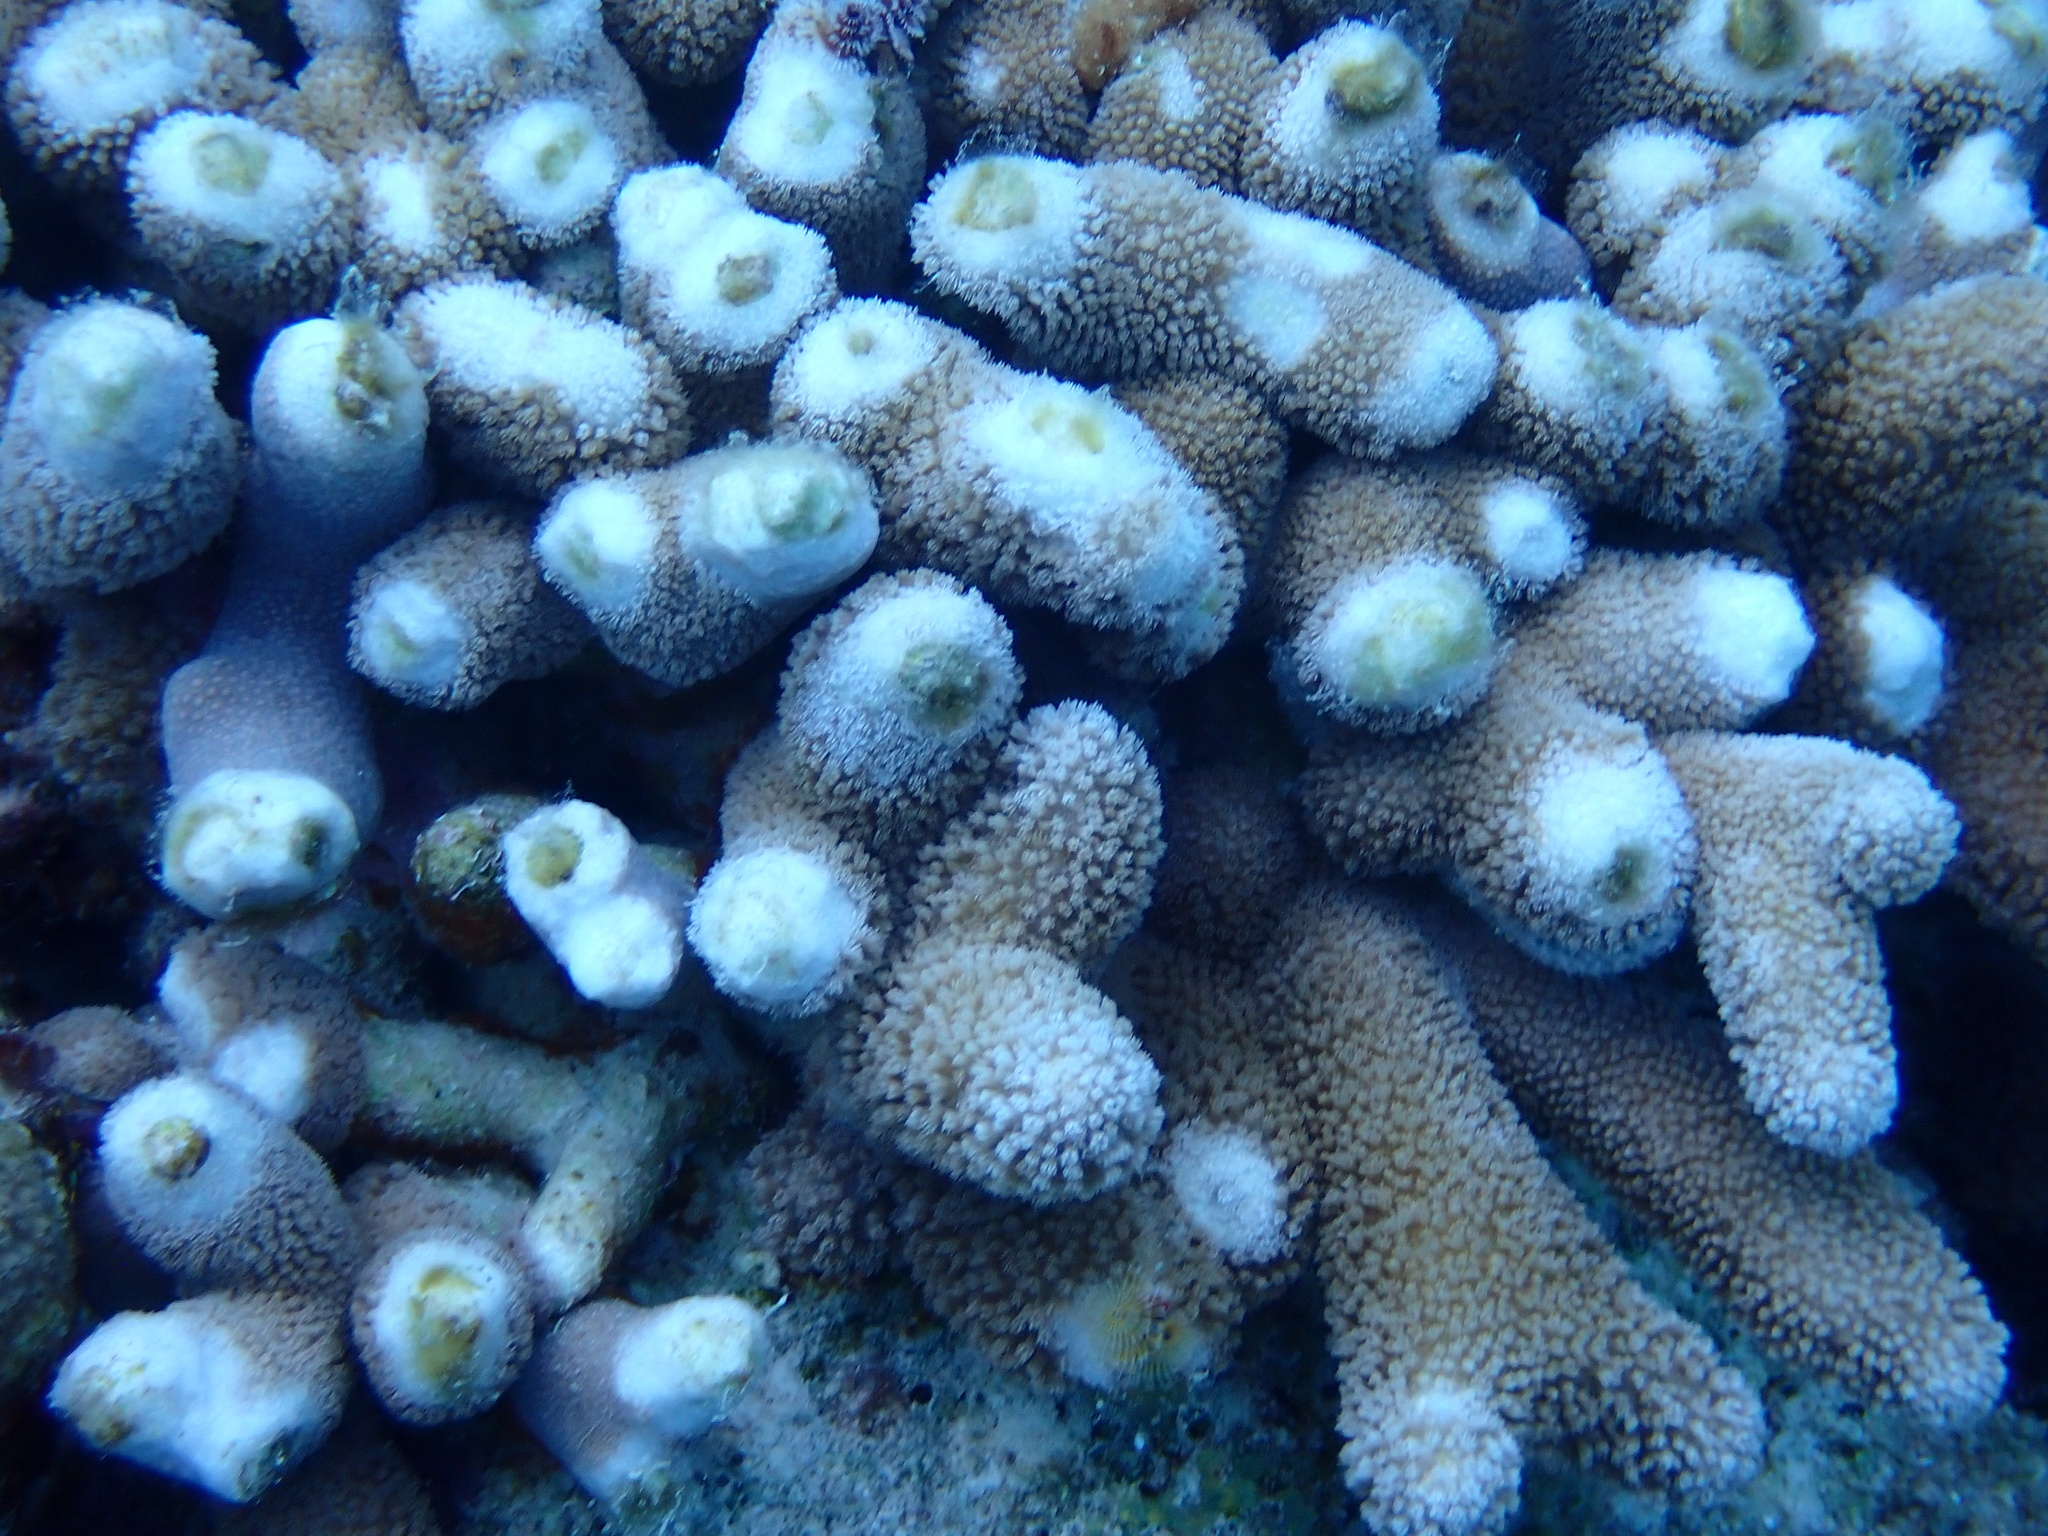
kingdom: Animalia
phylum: Cnidaria
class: Anthozoa
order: Scleractinia
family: Poritidae
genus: Porites
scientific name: Porites porites
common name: Finger coral
